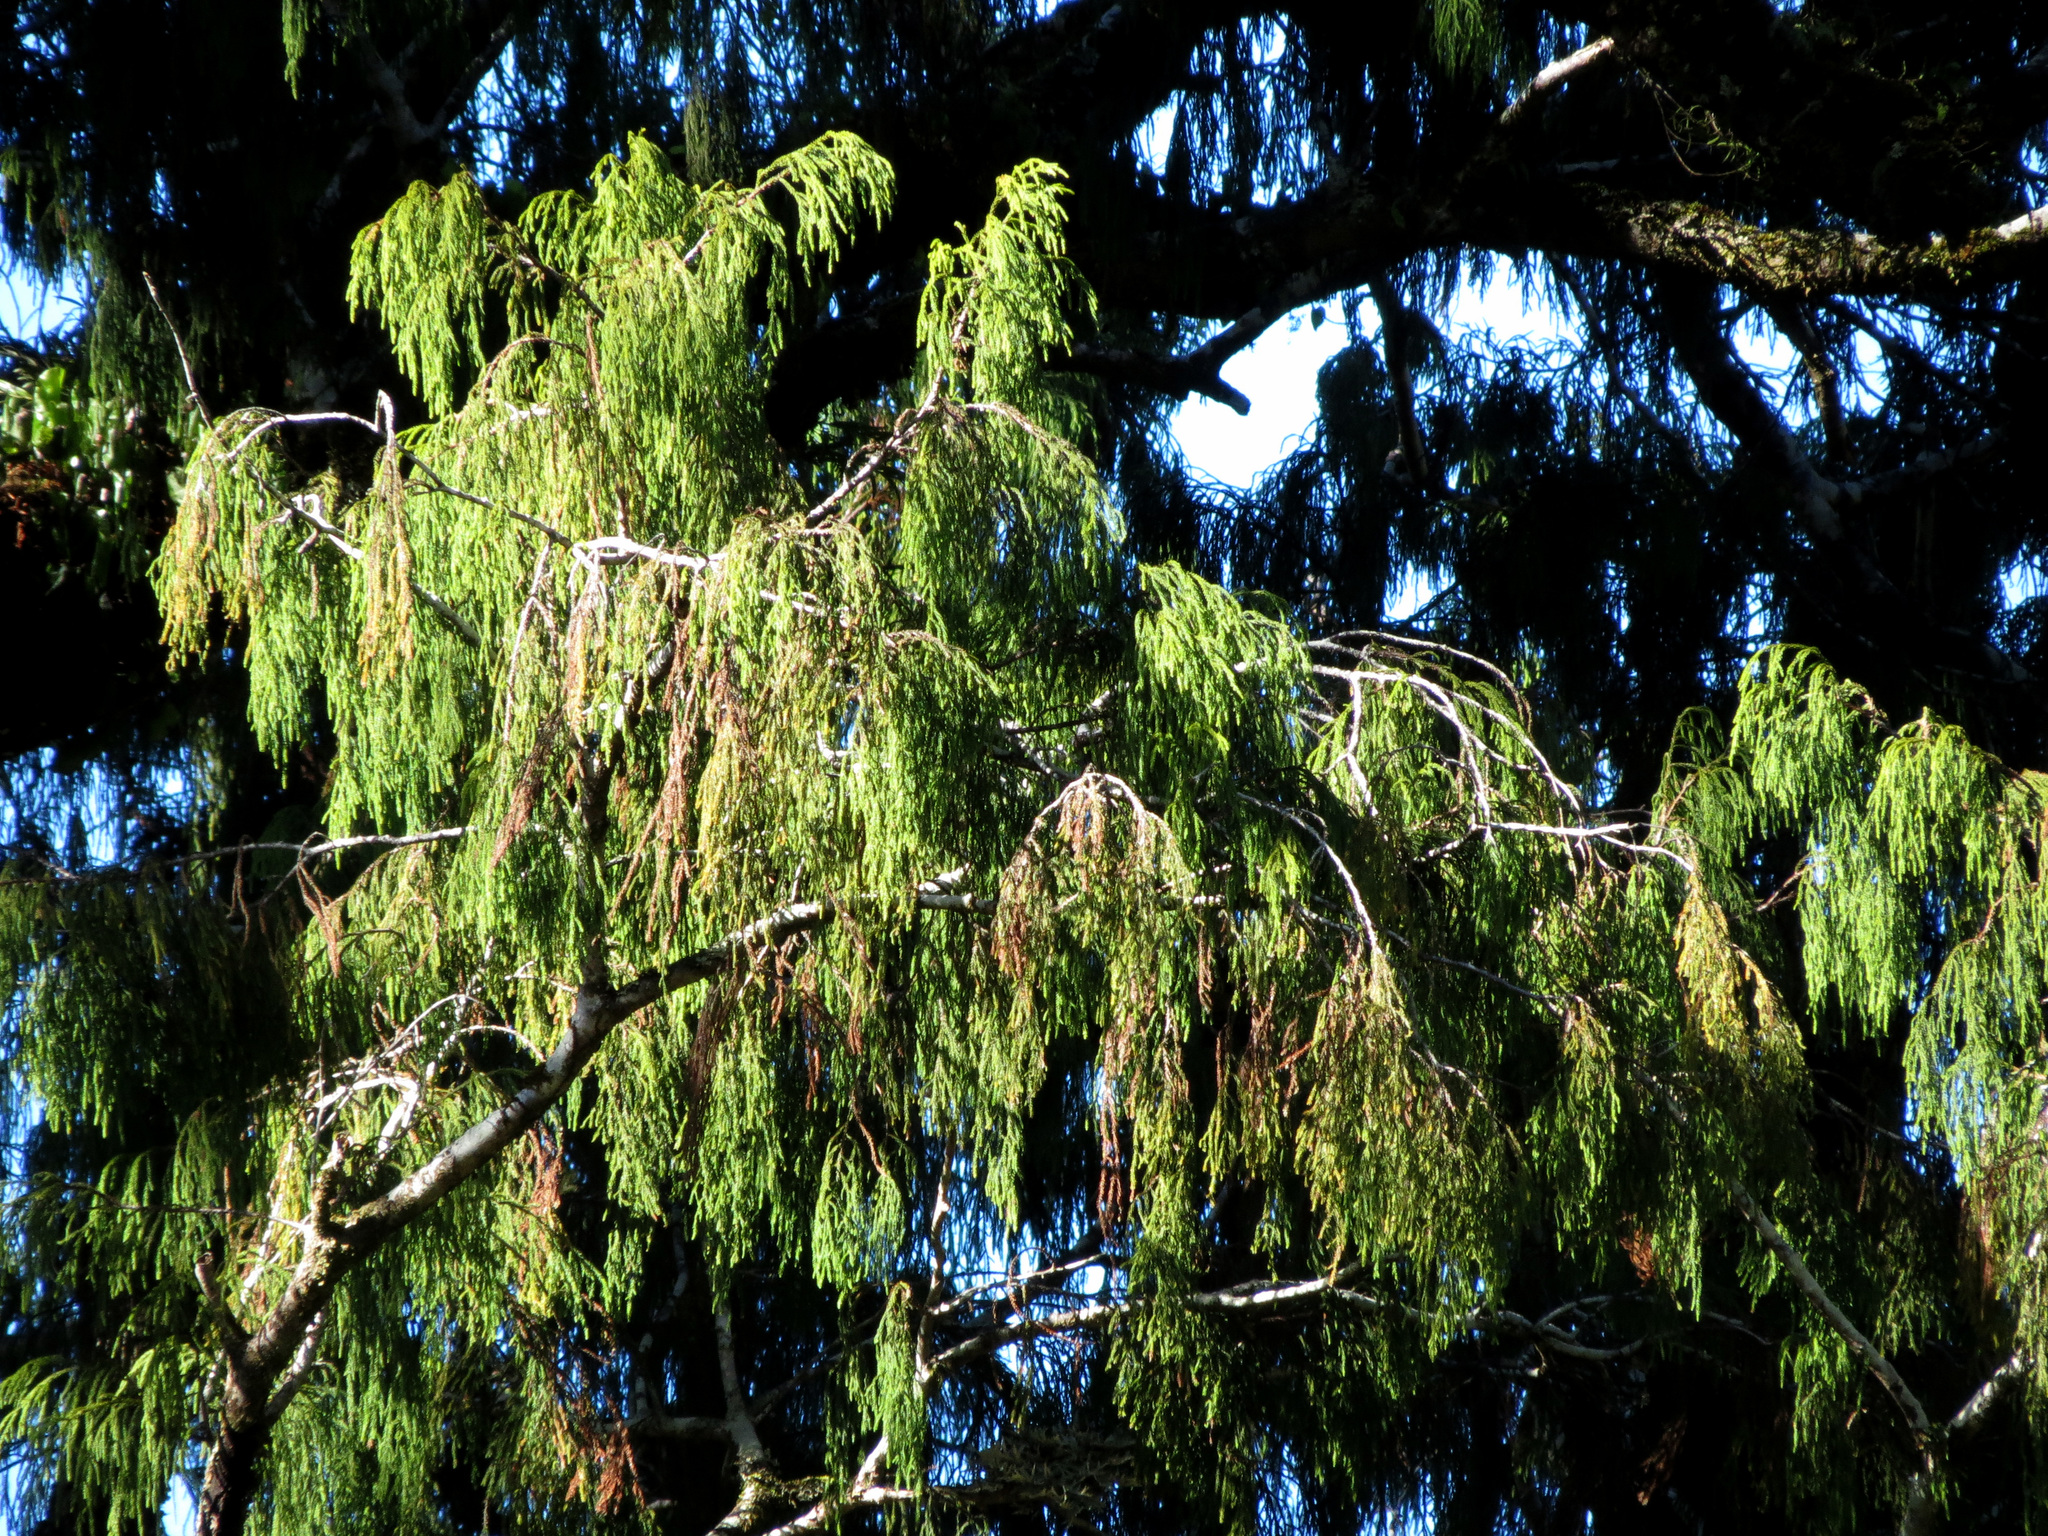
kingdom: Plantae
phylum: Tracheophyta
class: Pinopsida
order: Pinales
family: Podocarpaceae
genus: Dacrydium
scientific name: Dacrydium cupressinum
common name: Red pine
